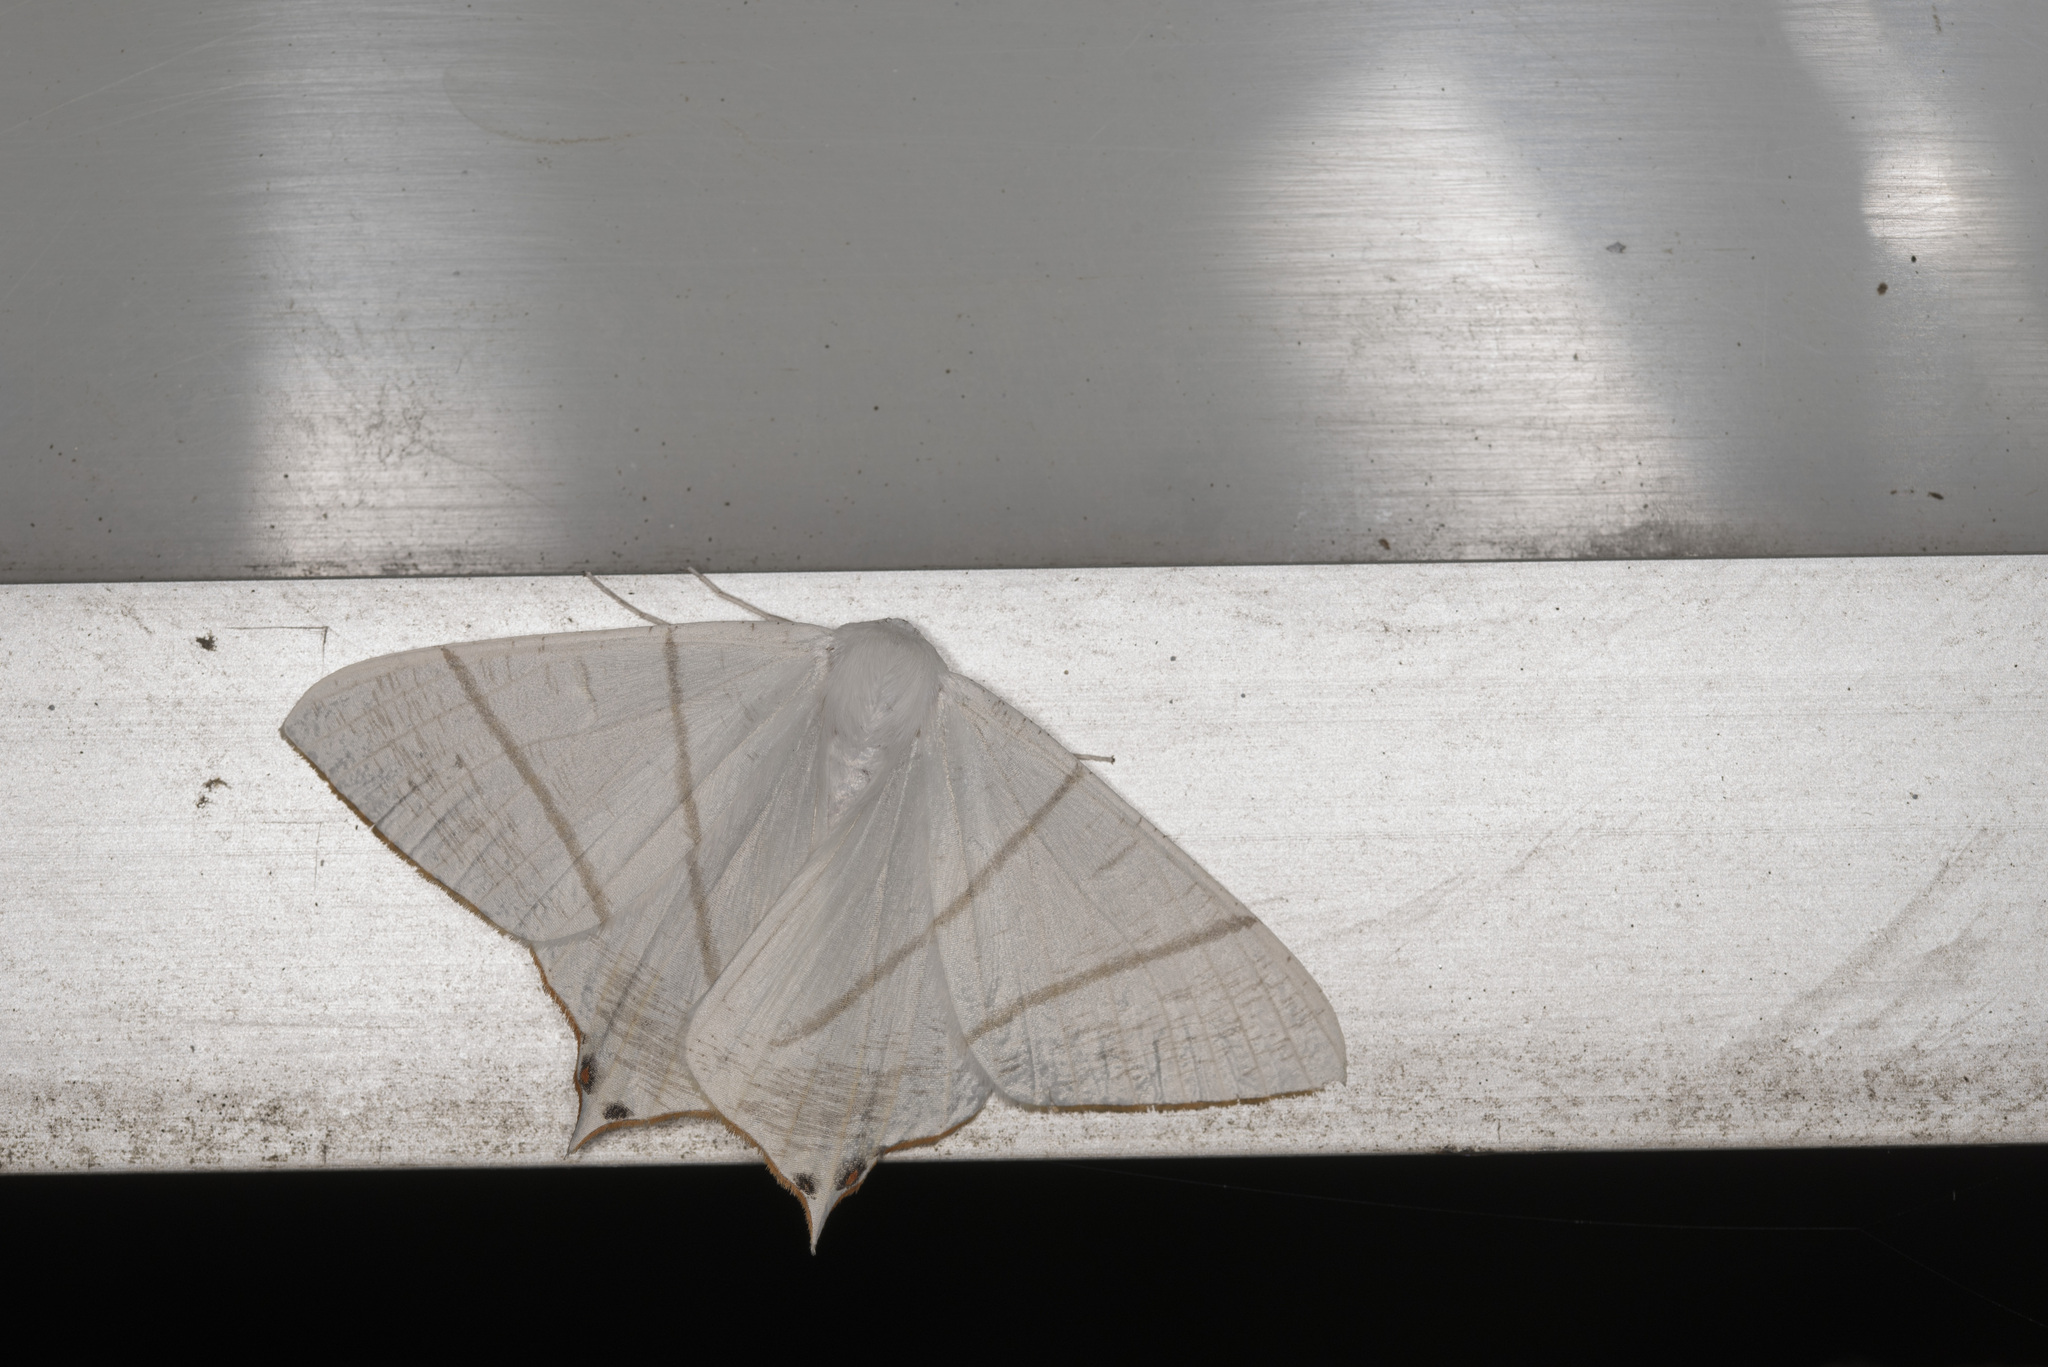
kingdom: Animalia
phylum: Arthropoda
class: Insecta
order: Lepidoptera
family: Geometridae
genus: Ourapteryx
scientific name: Ourapteryx nivea
